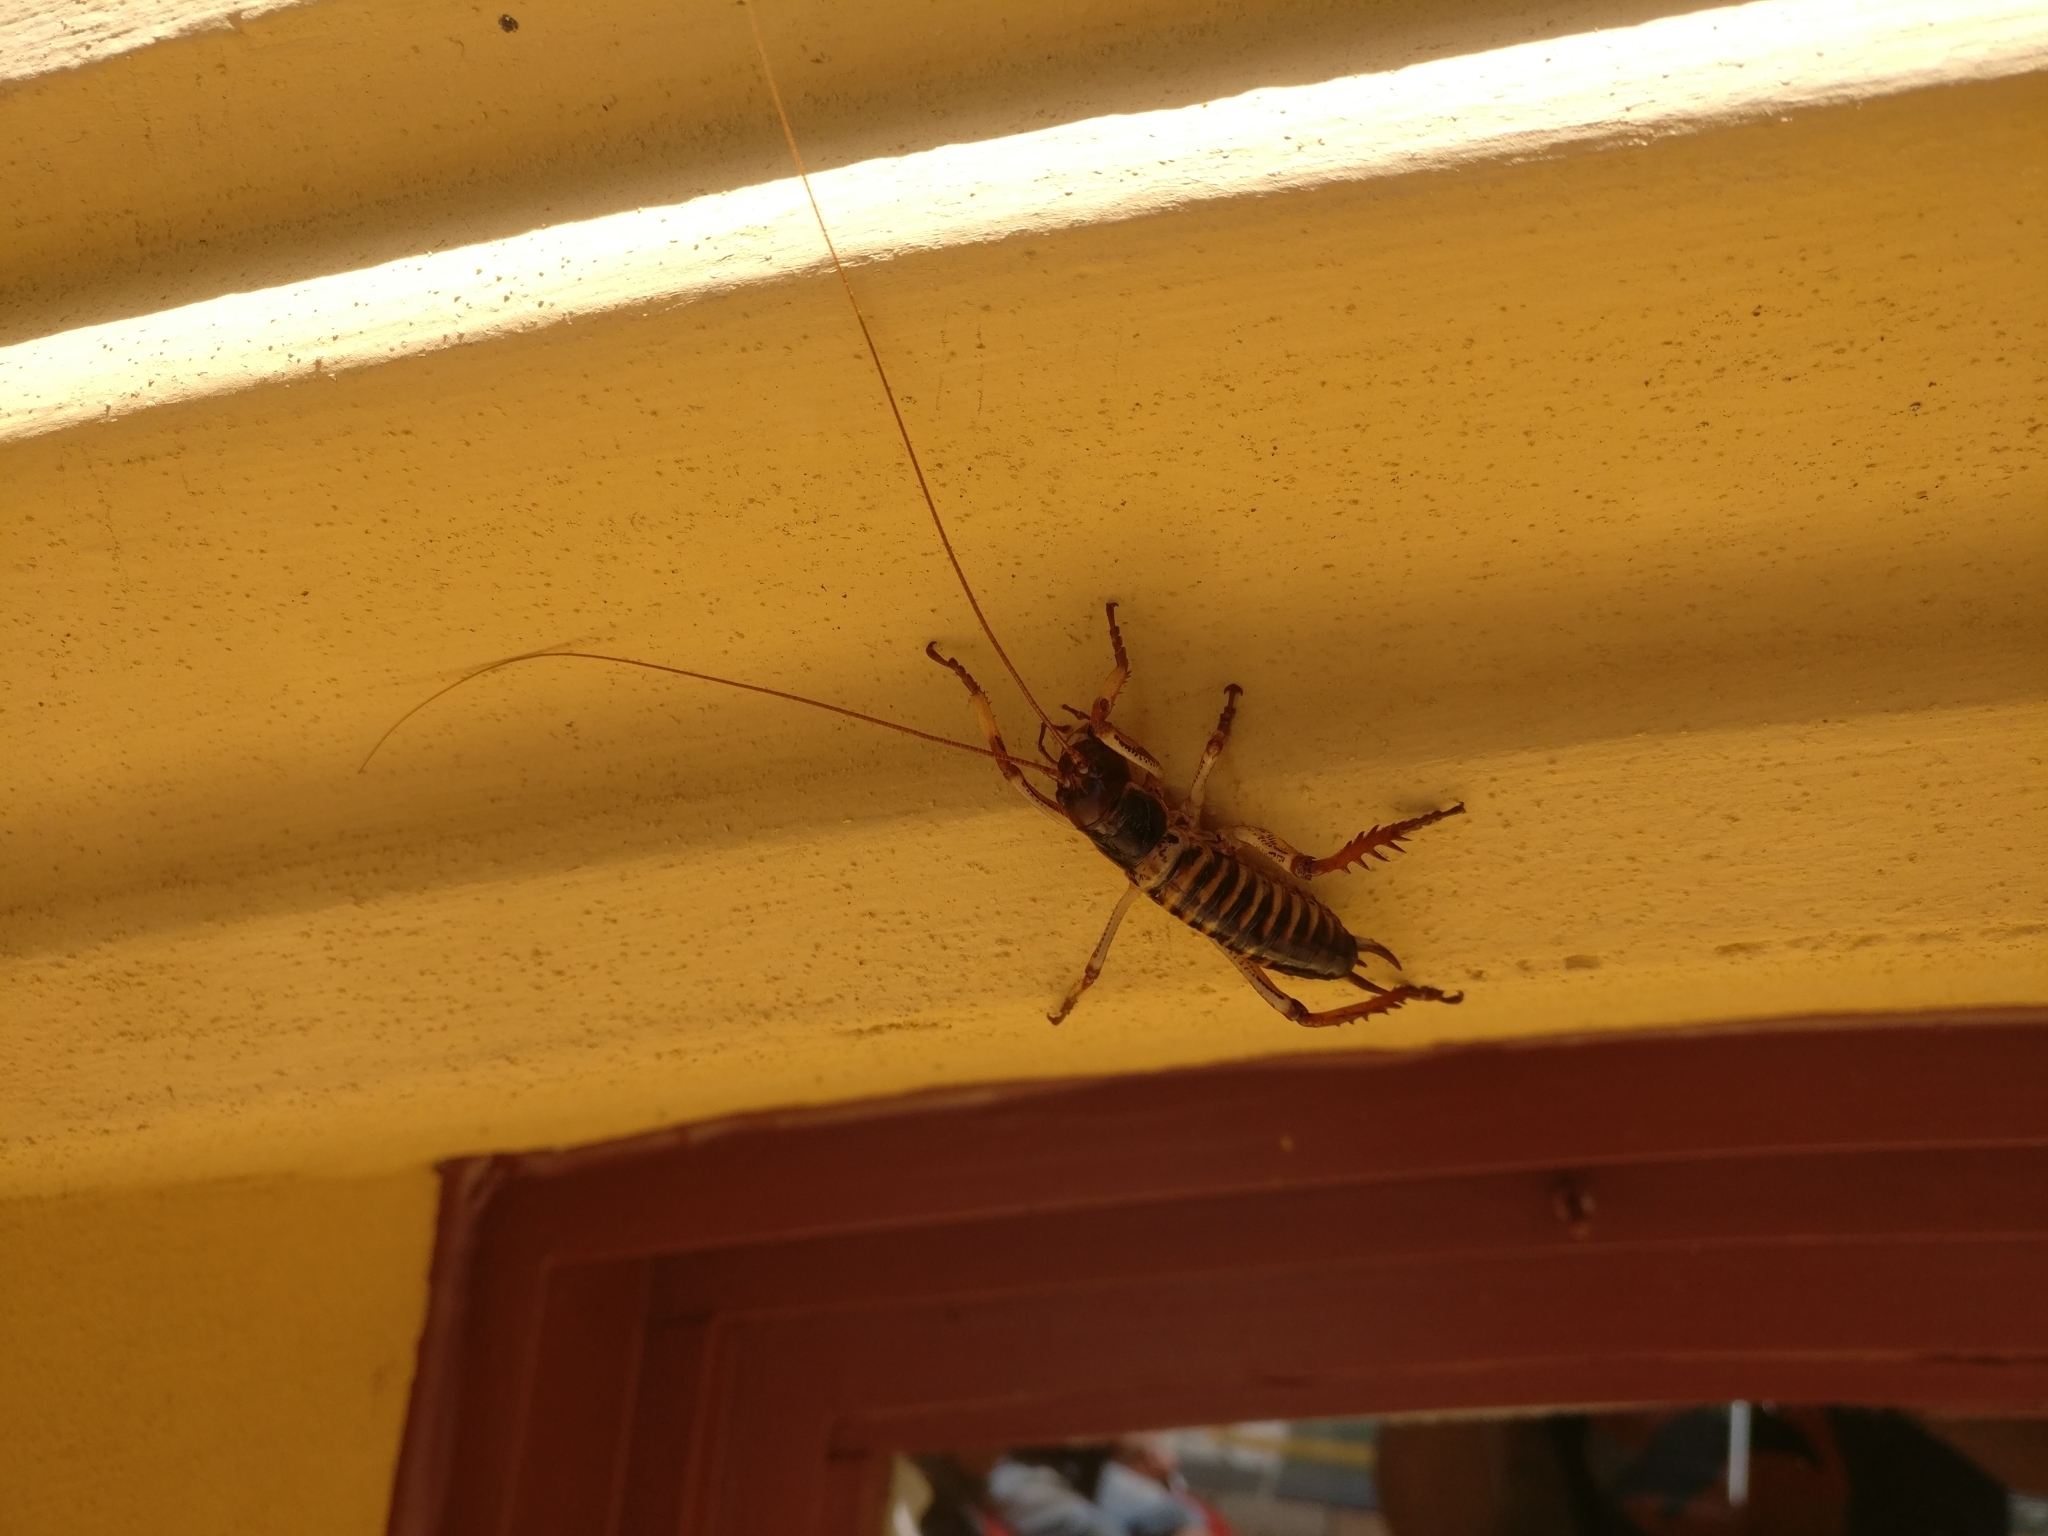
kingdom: Animalia
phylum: Arthropoda
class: Insecta
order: Orthoptera
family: Anostostomatidae
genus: Hemideina
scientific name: Hemideina crassidens
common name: Wellington tree weta
